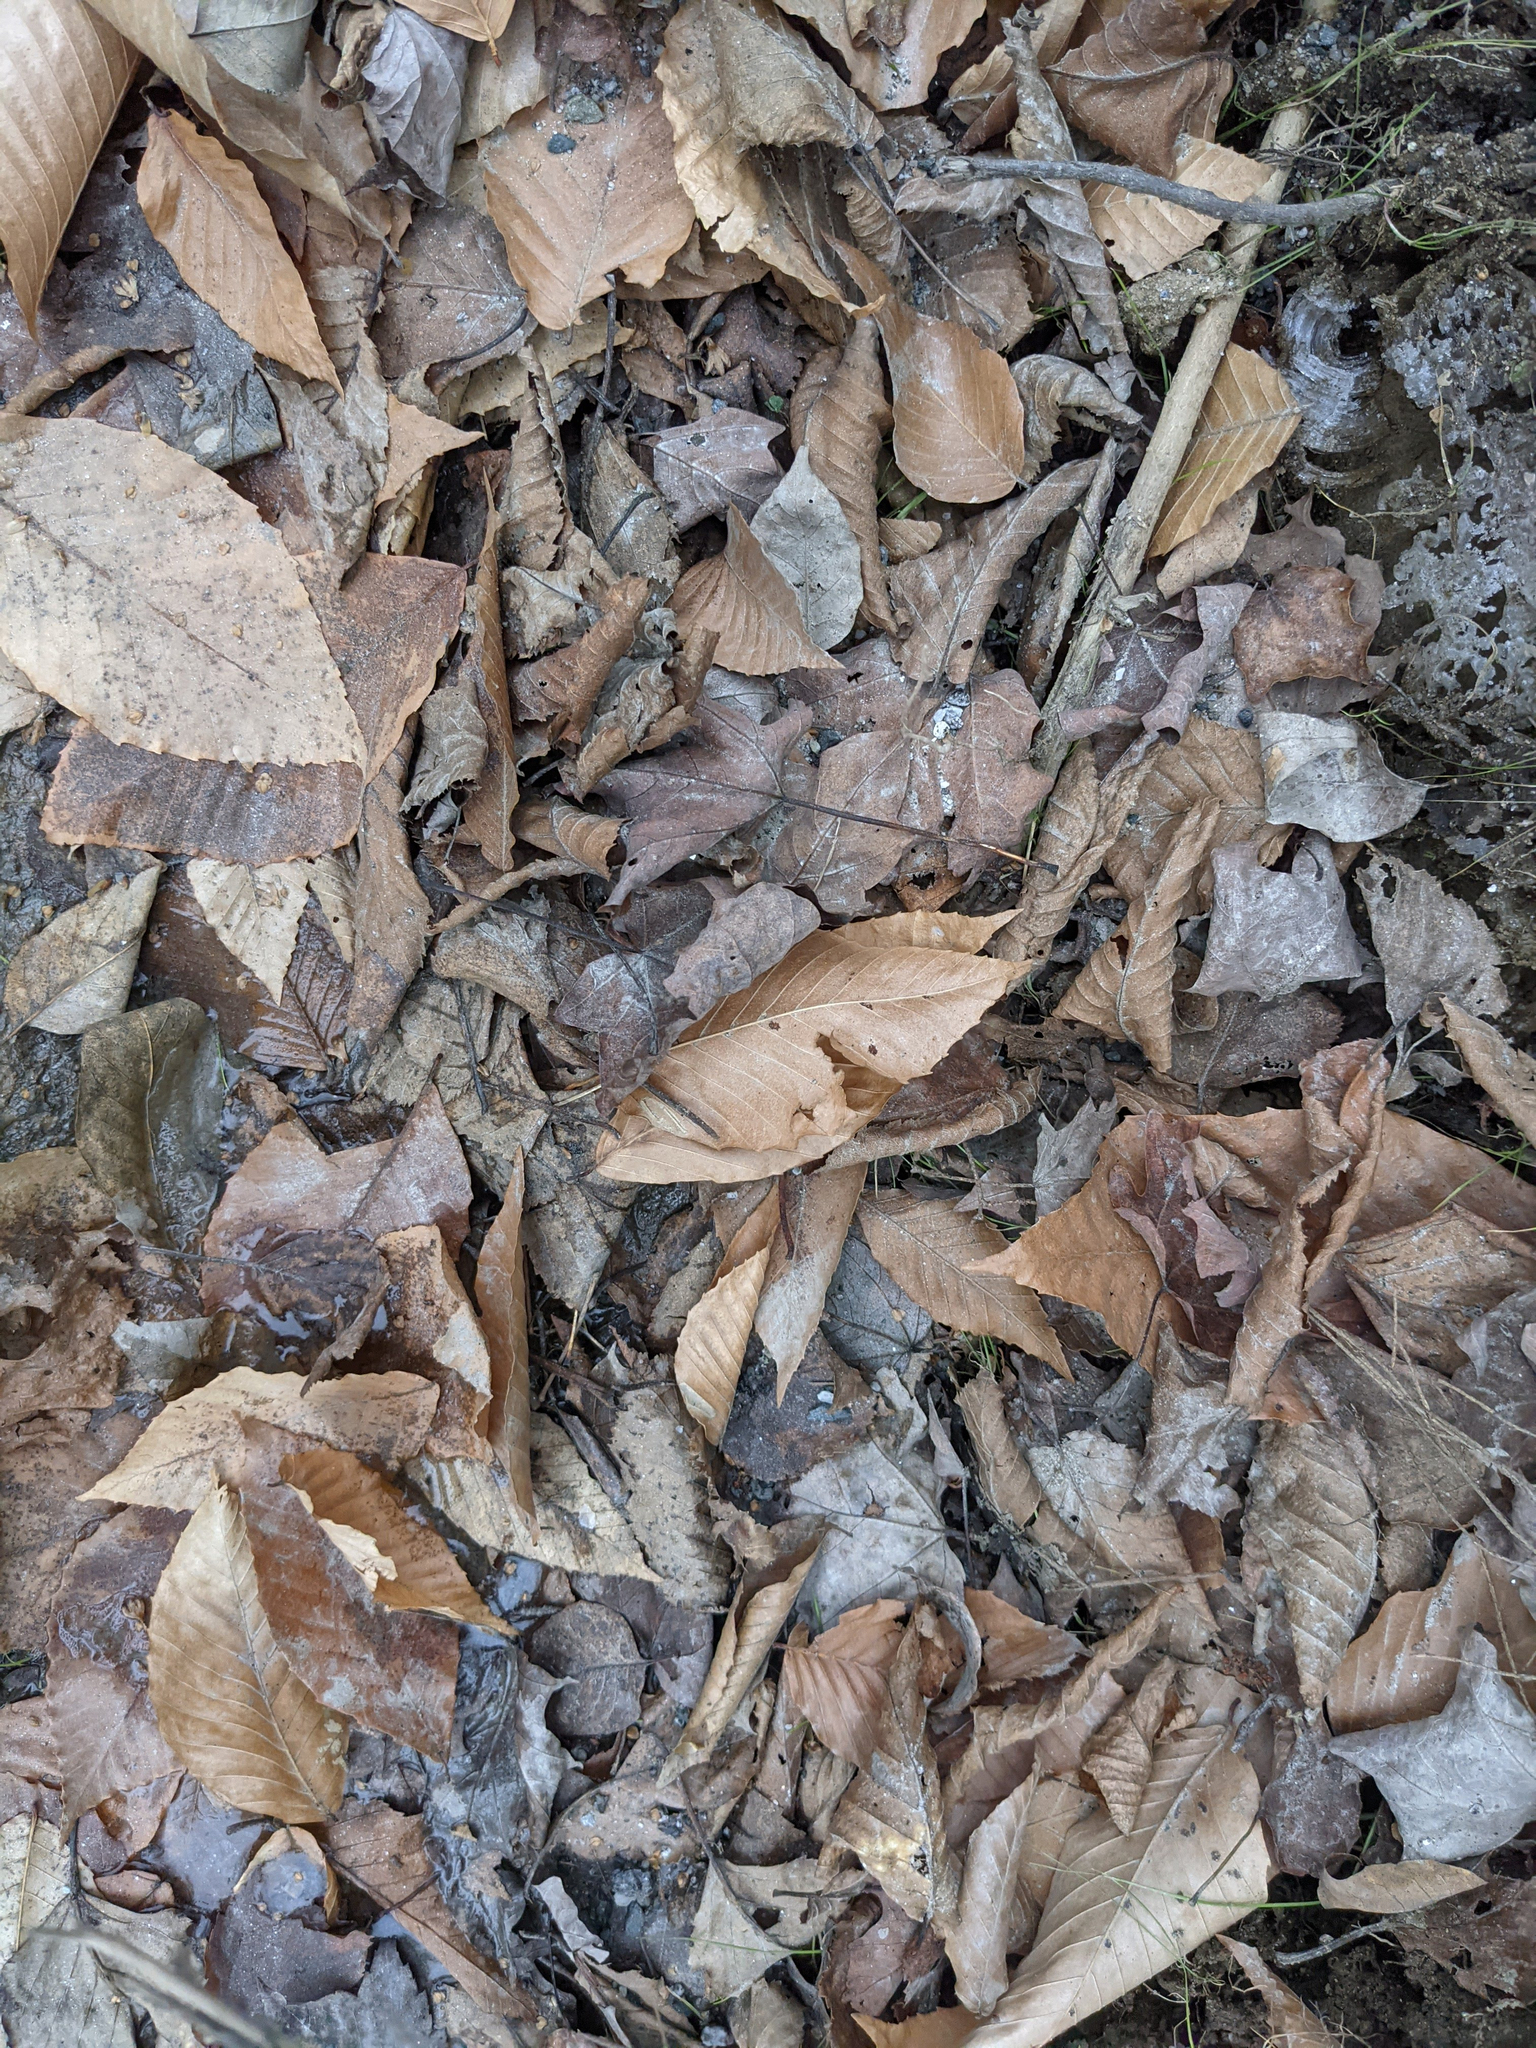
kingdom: Plantae
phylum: Tracheophyta
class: Magnoliopsida
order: Fagales
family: Fagaceae
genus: Fagus
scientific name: Fagus grandifolia
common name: American beech
